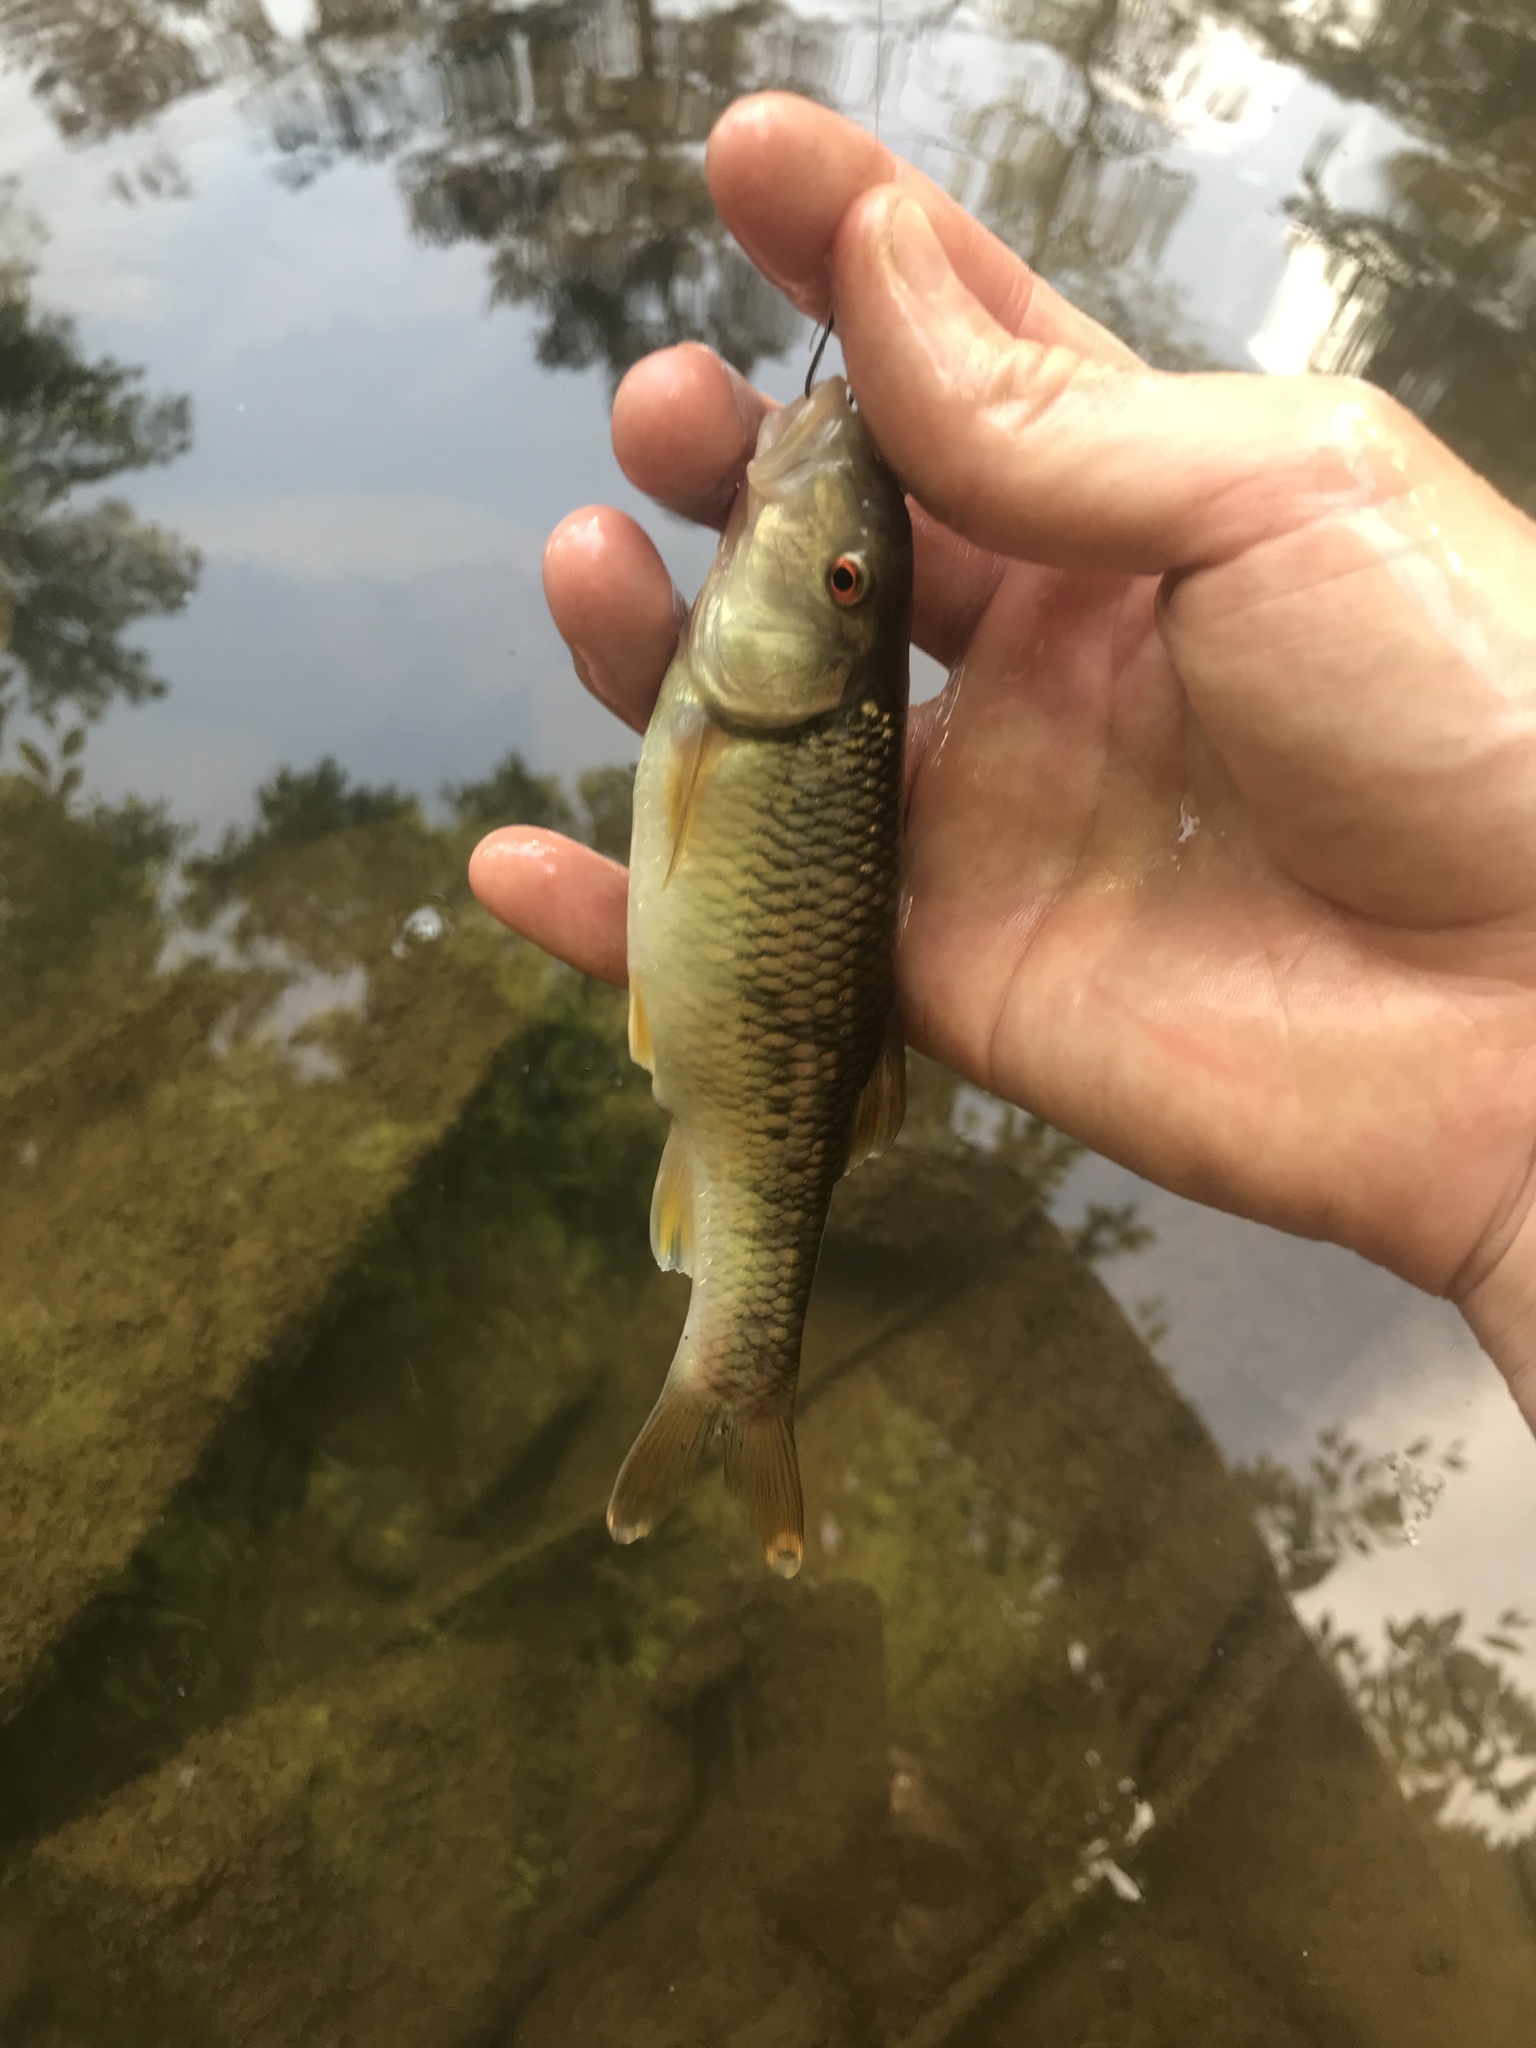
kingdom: Animalia
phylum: Chordata
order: Cypriniformes
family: Cyprinidae
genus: Nocomis
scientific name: Nocomis raneyi
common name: Bull chub
